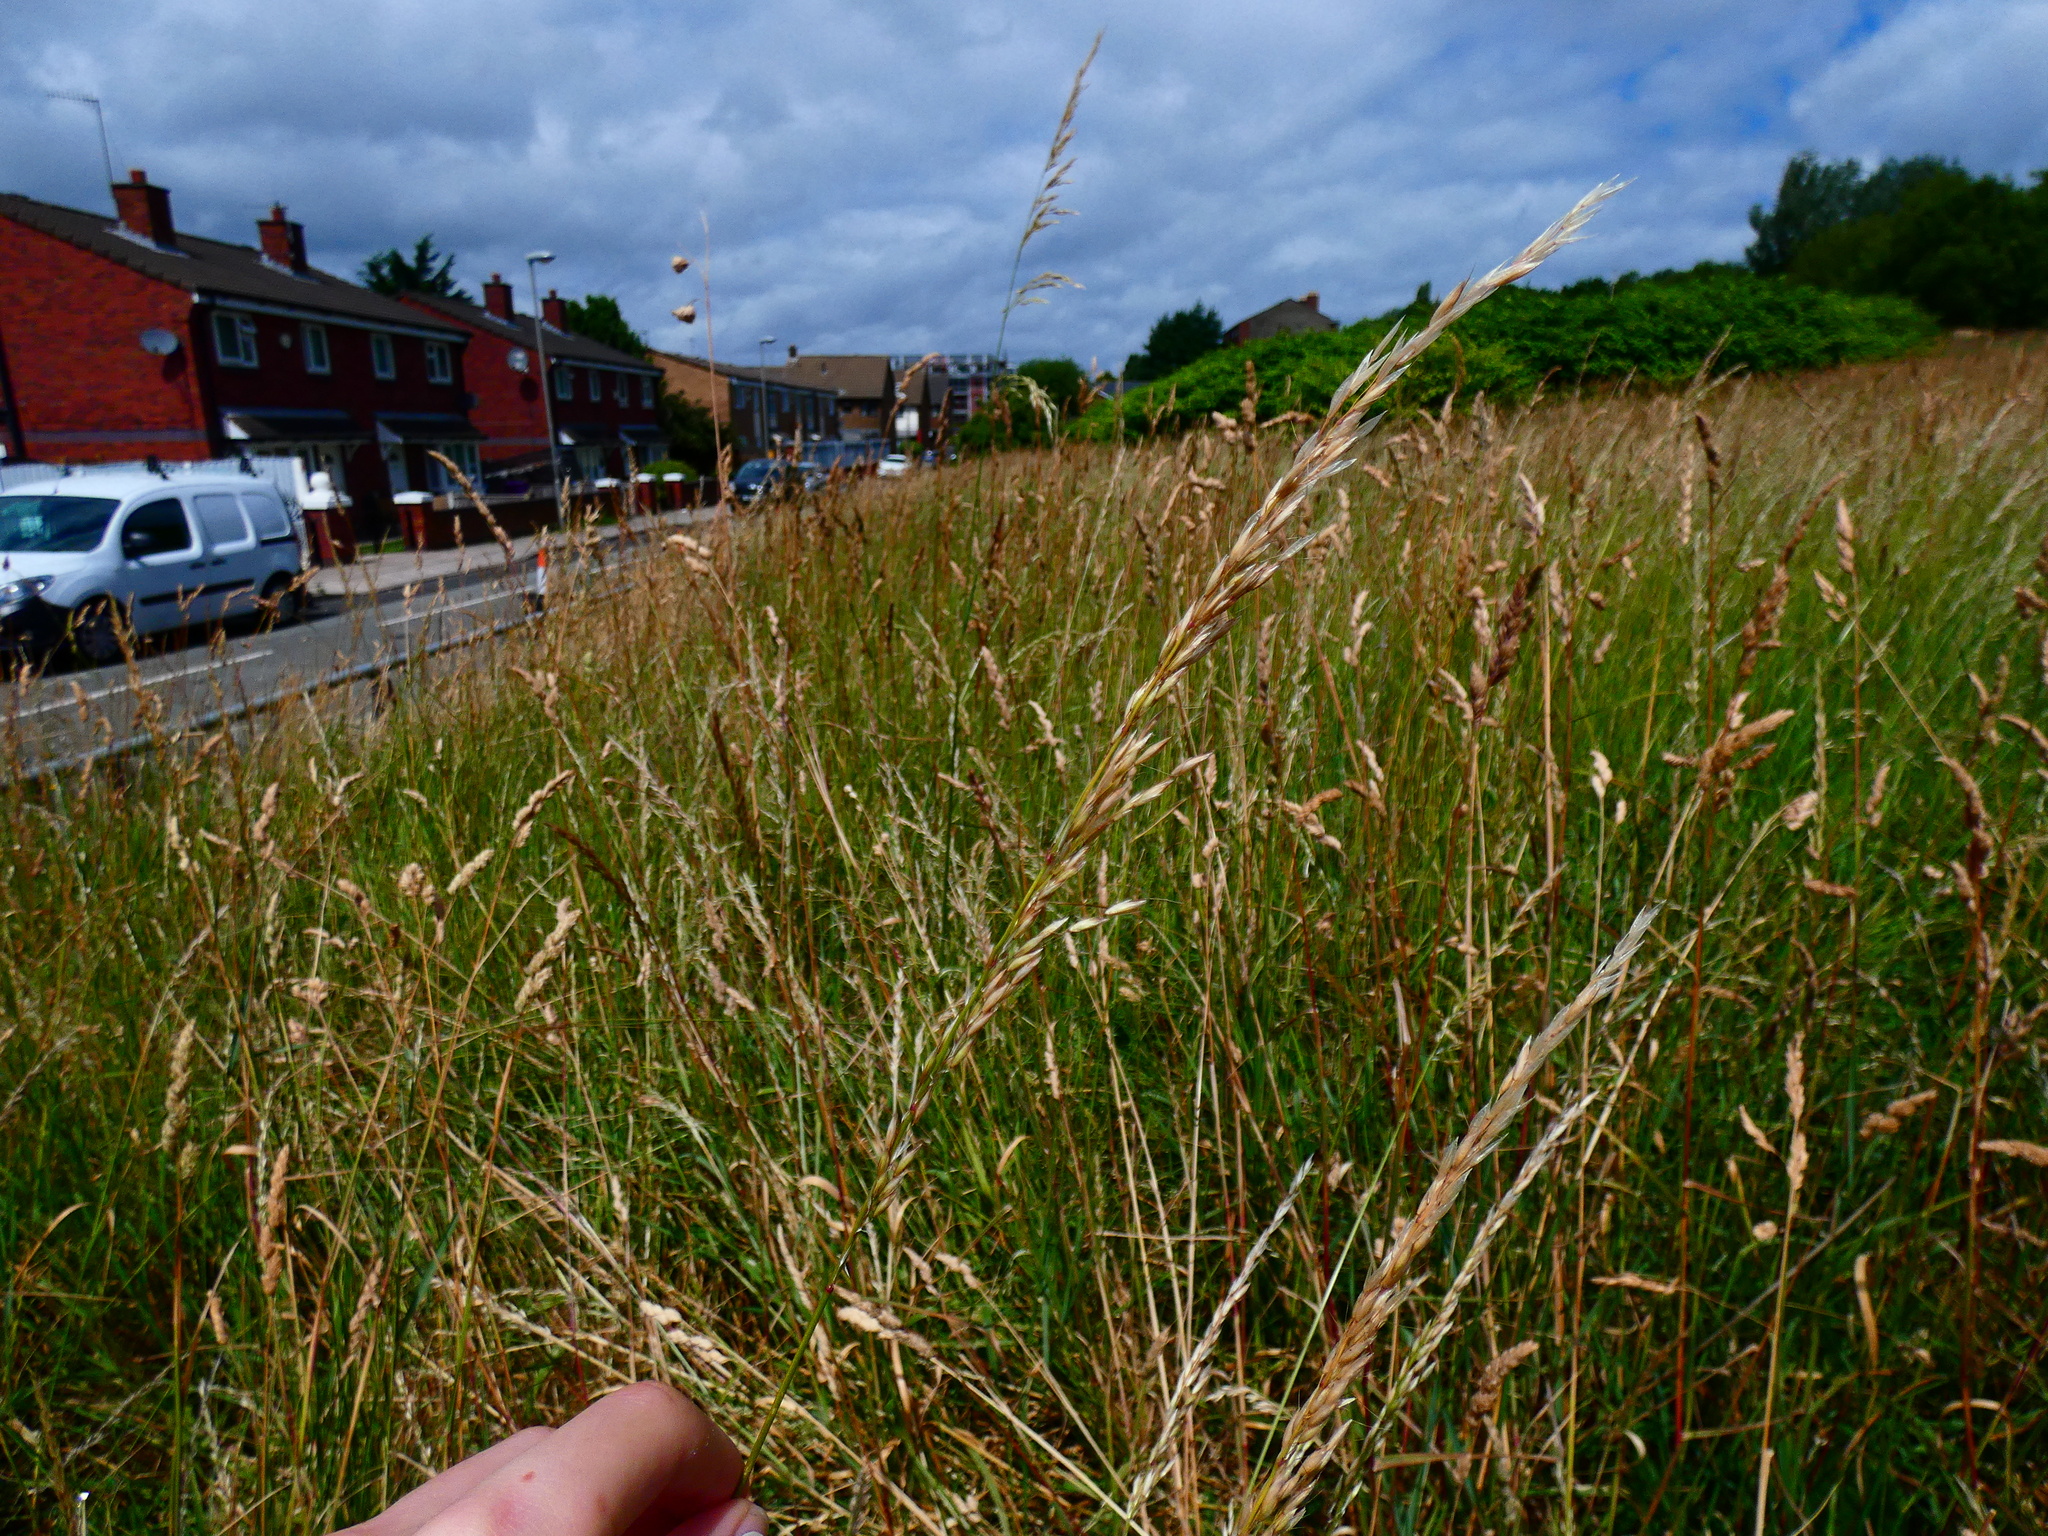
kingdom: Plantae
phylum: Tracheophyta
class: Liliopsida
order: Poales
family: Poaceae
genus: Arrhenatherum
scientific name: Arrhenatherum elatius
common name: Tall oatgrass
